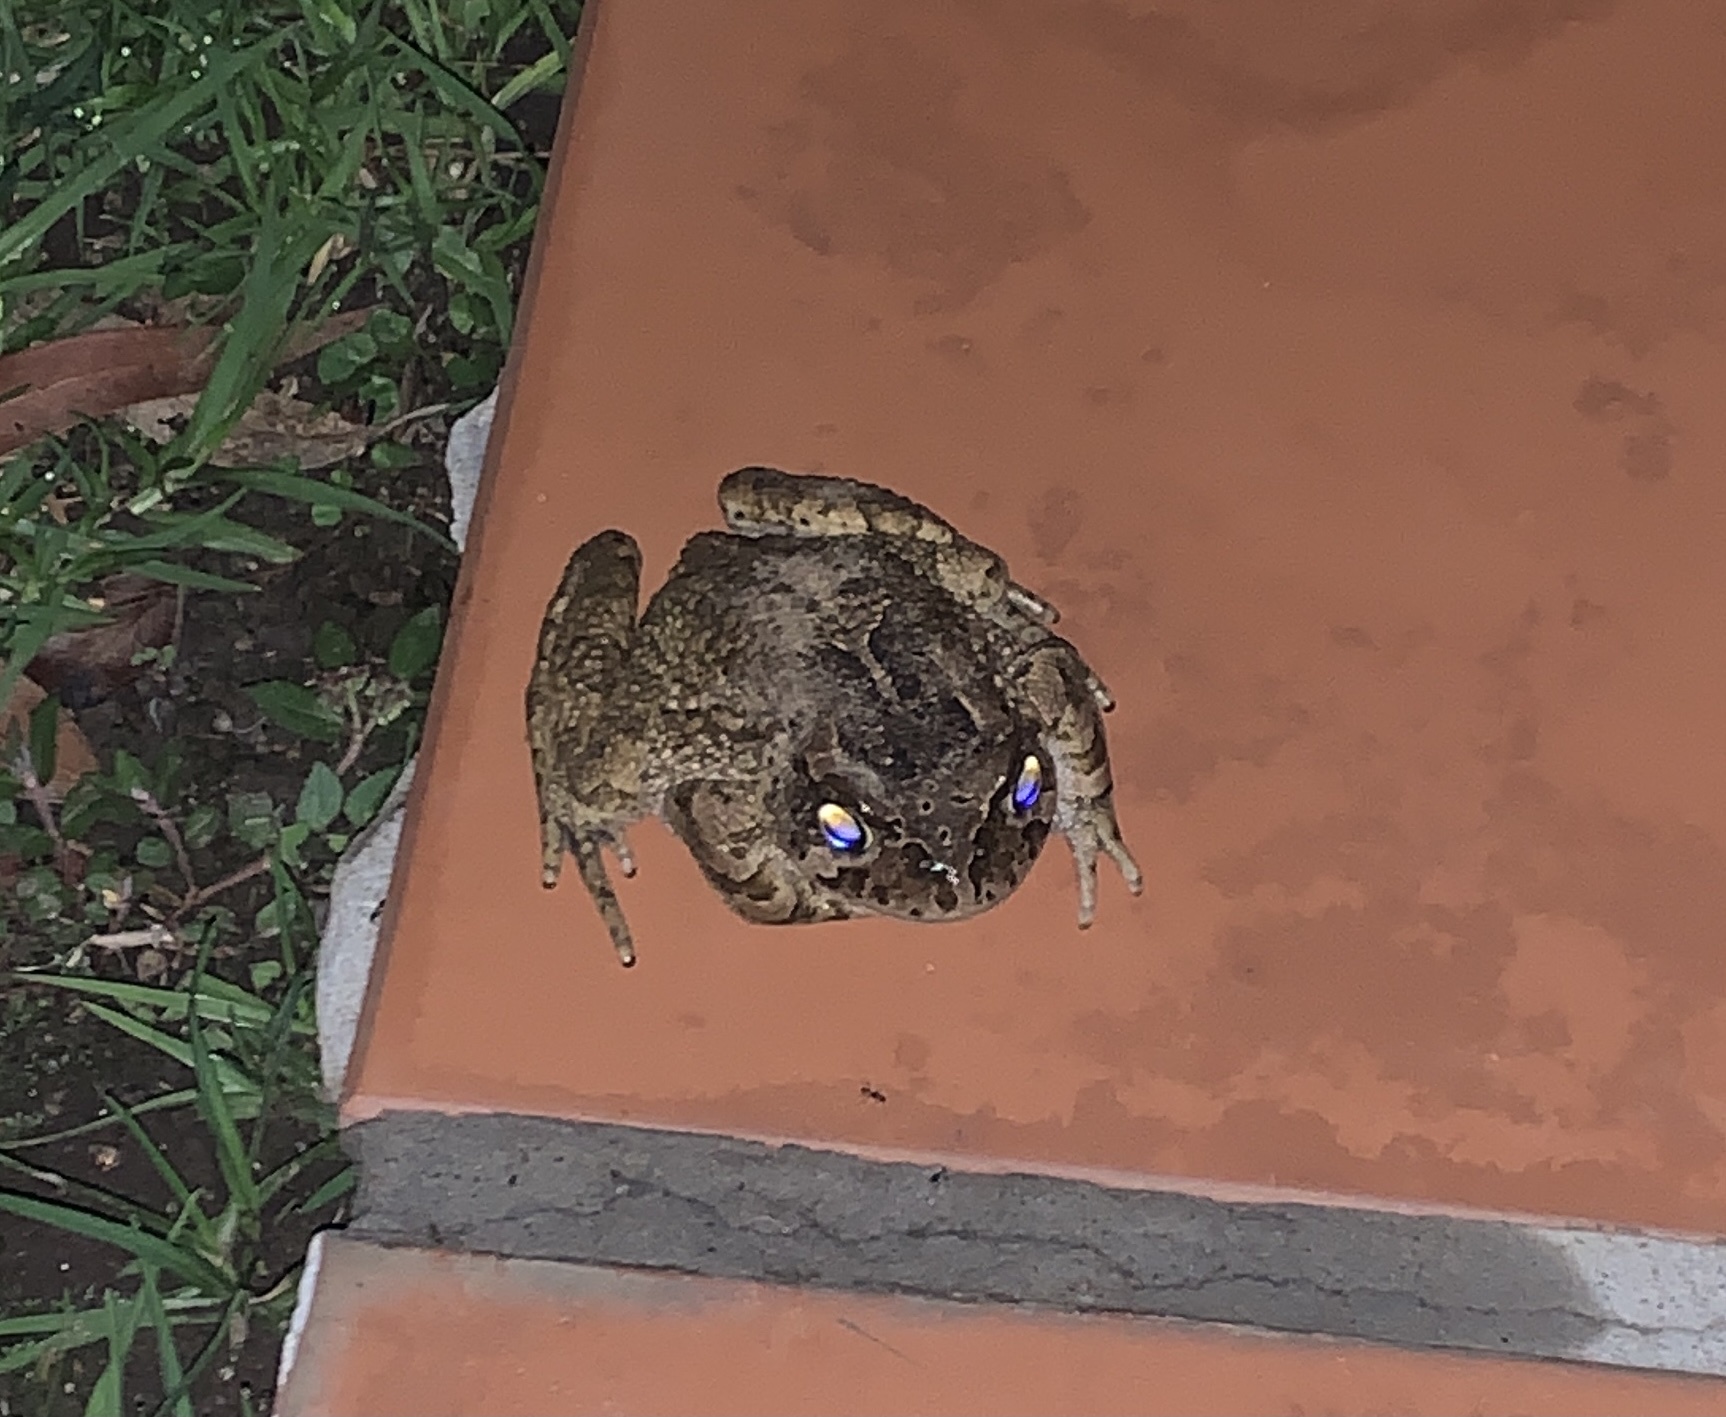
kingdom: Animalia
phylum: Chordata
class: Amphibia
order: Anura
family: Bufonidae
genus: Sclerophrys
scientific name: Sclerophrys capensis
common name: Ranger’s toad
